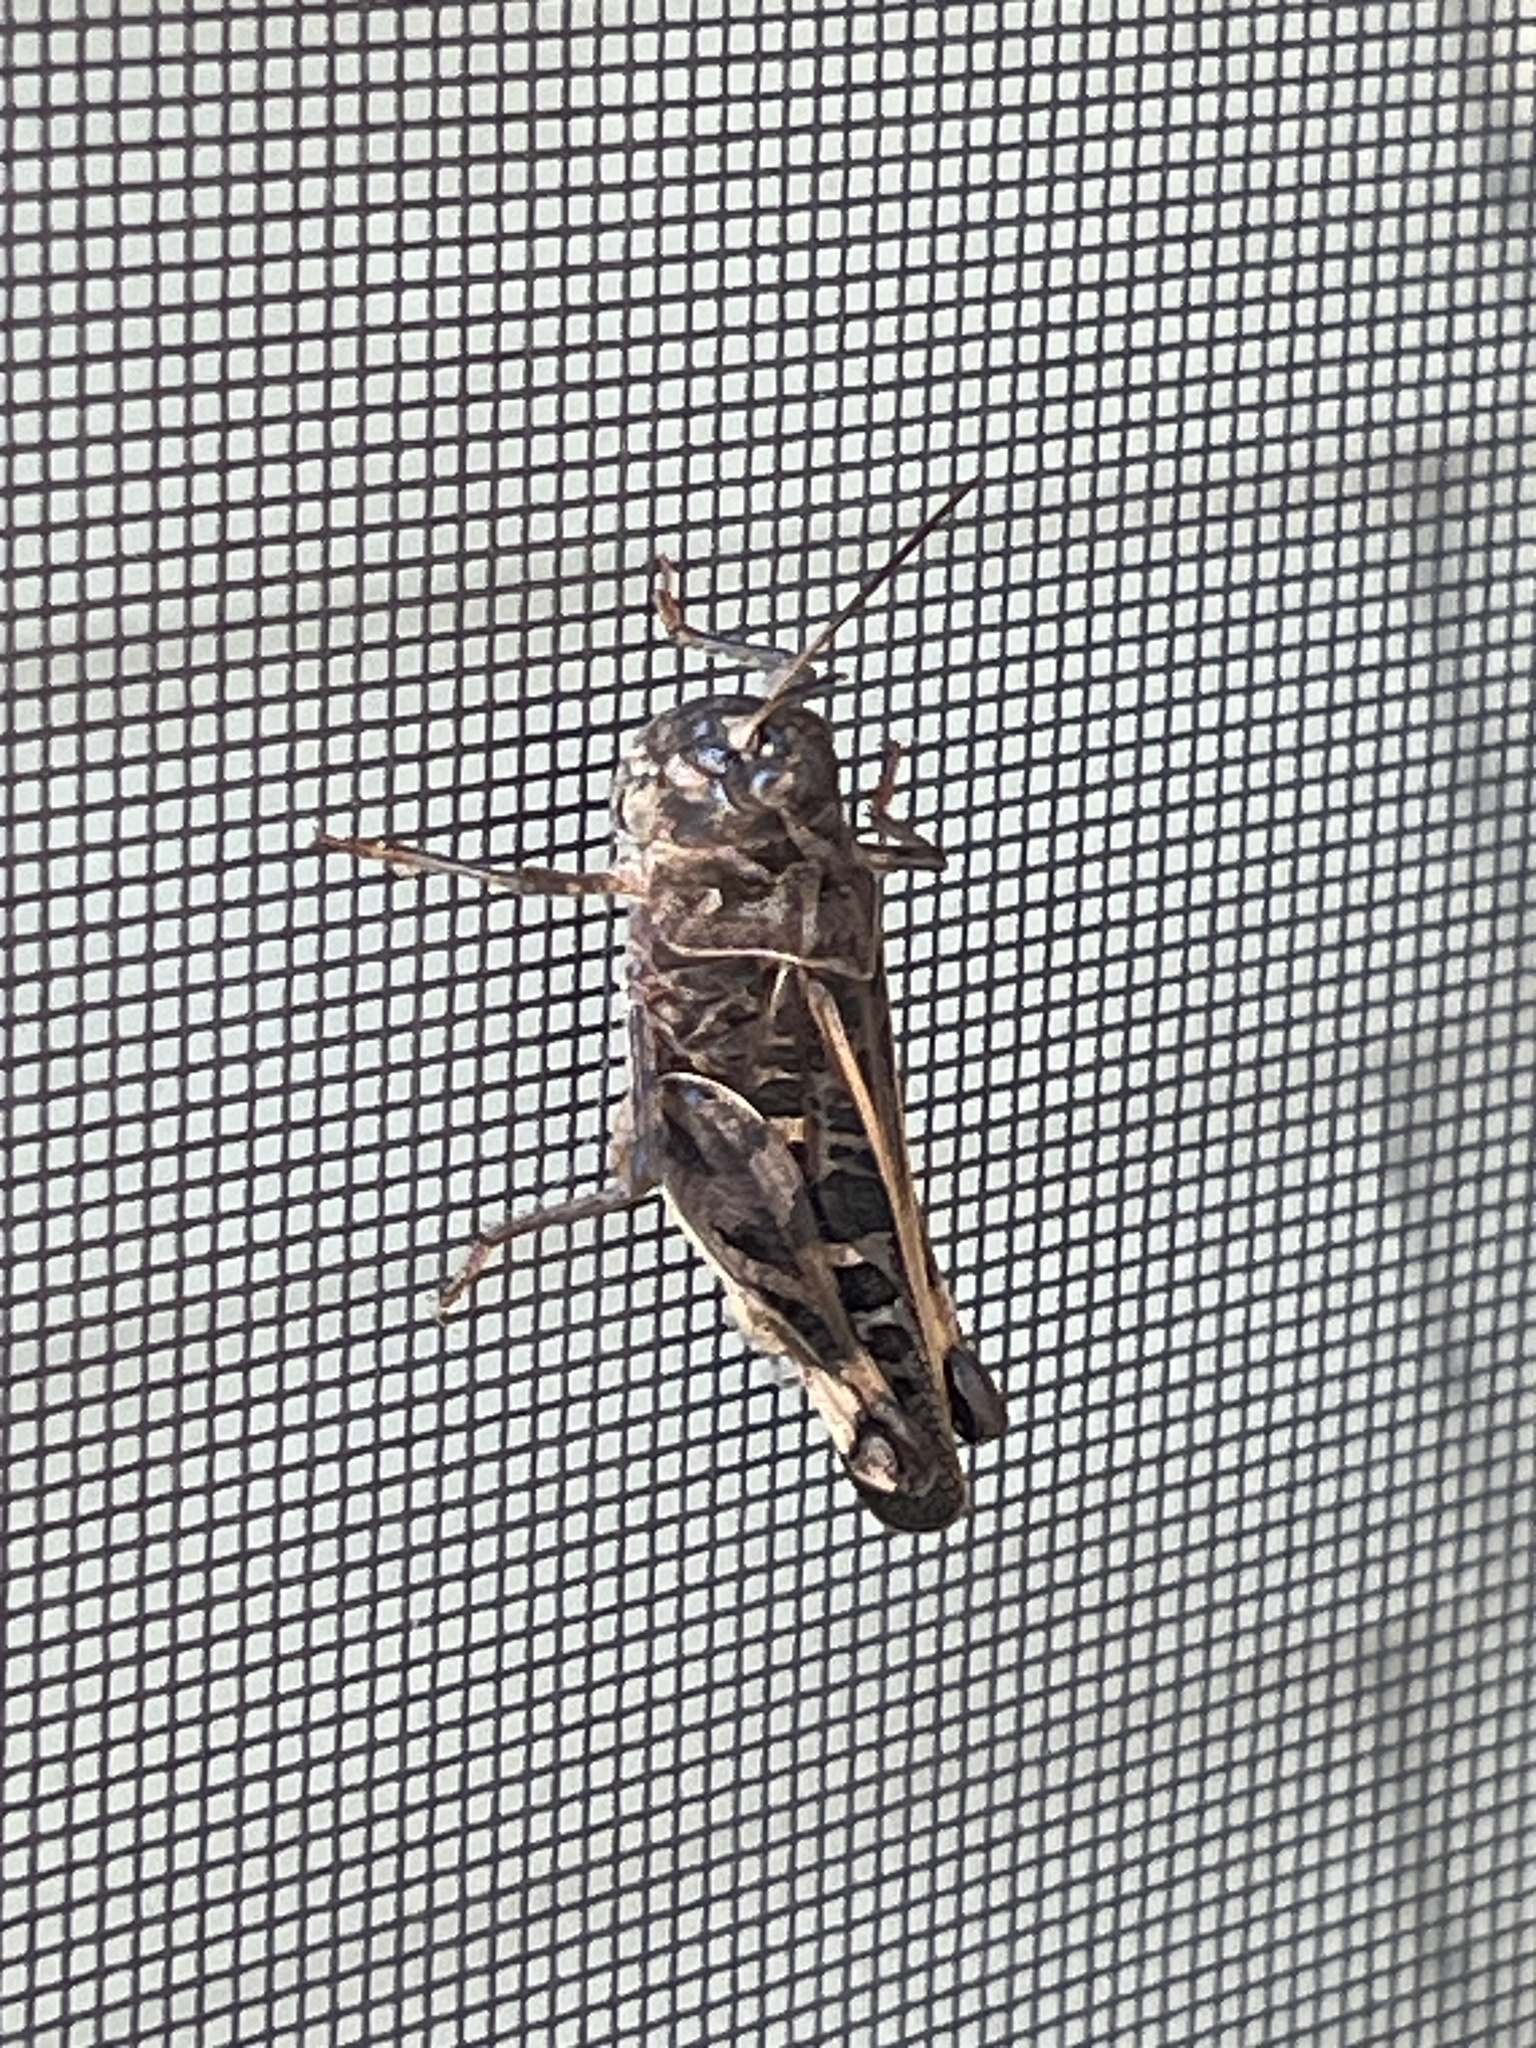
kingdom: Animalia
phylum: Arthropoda
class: Insecta
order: Orthoptera
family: Acrididae
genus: Hippiscus
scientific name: Hippiscus ocelote
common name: Wrinkled grasshopper
